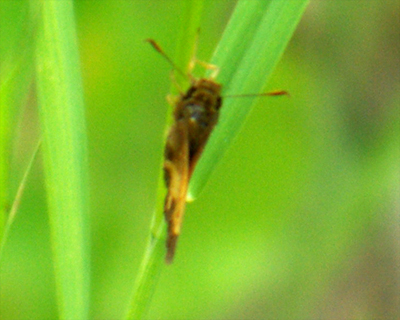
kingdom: Animalia
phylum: Arthropoda
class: Insecta
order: Lepidoptera
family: Hesperiidae
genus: Lon
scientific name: Lon hobomok
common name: Hobomok skipper
